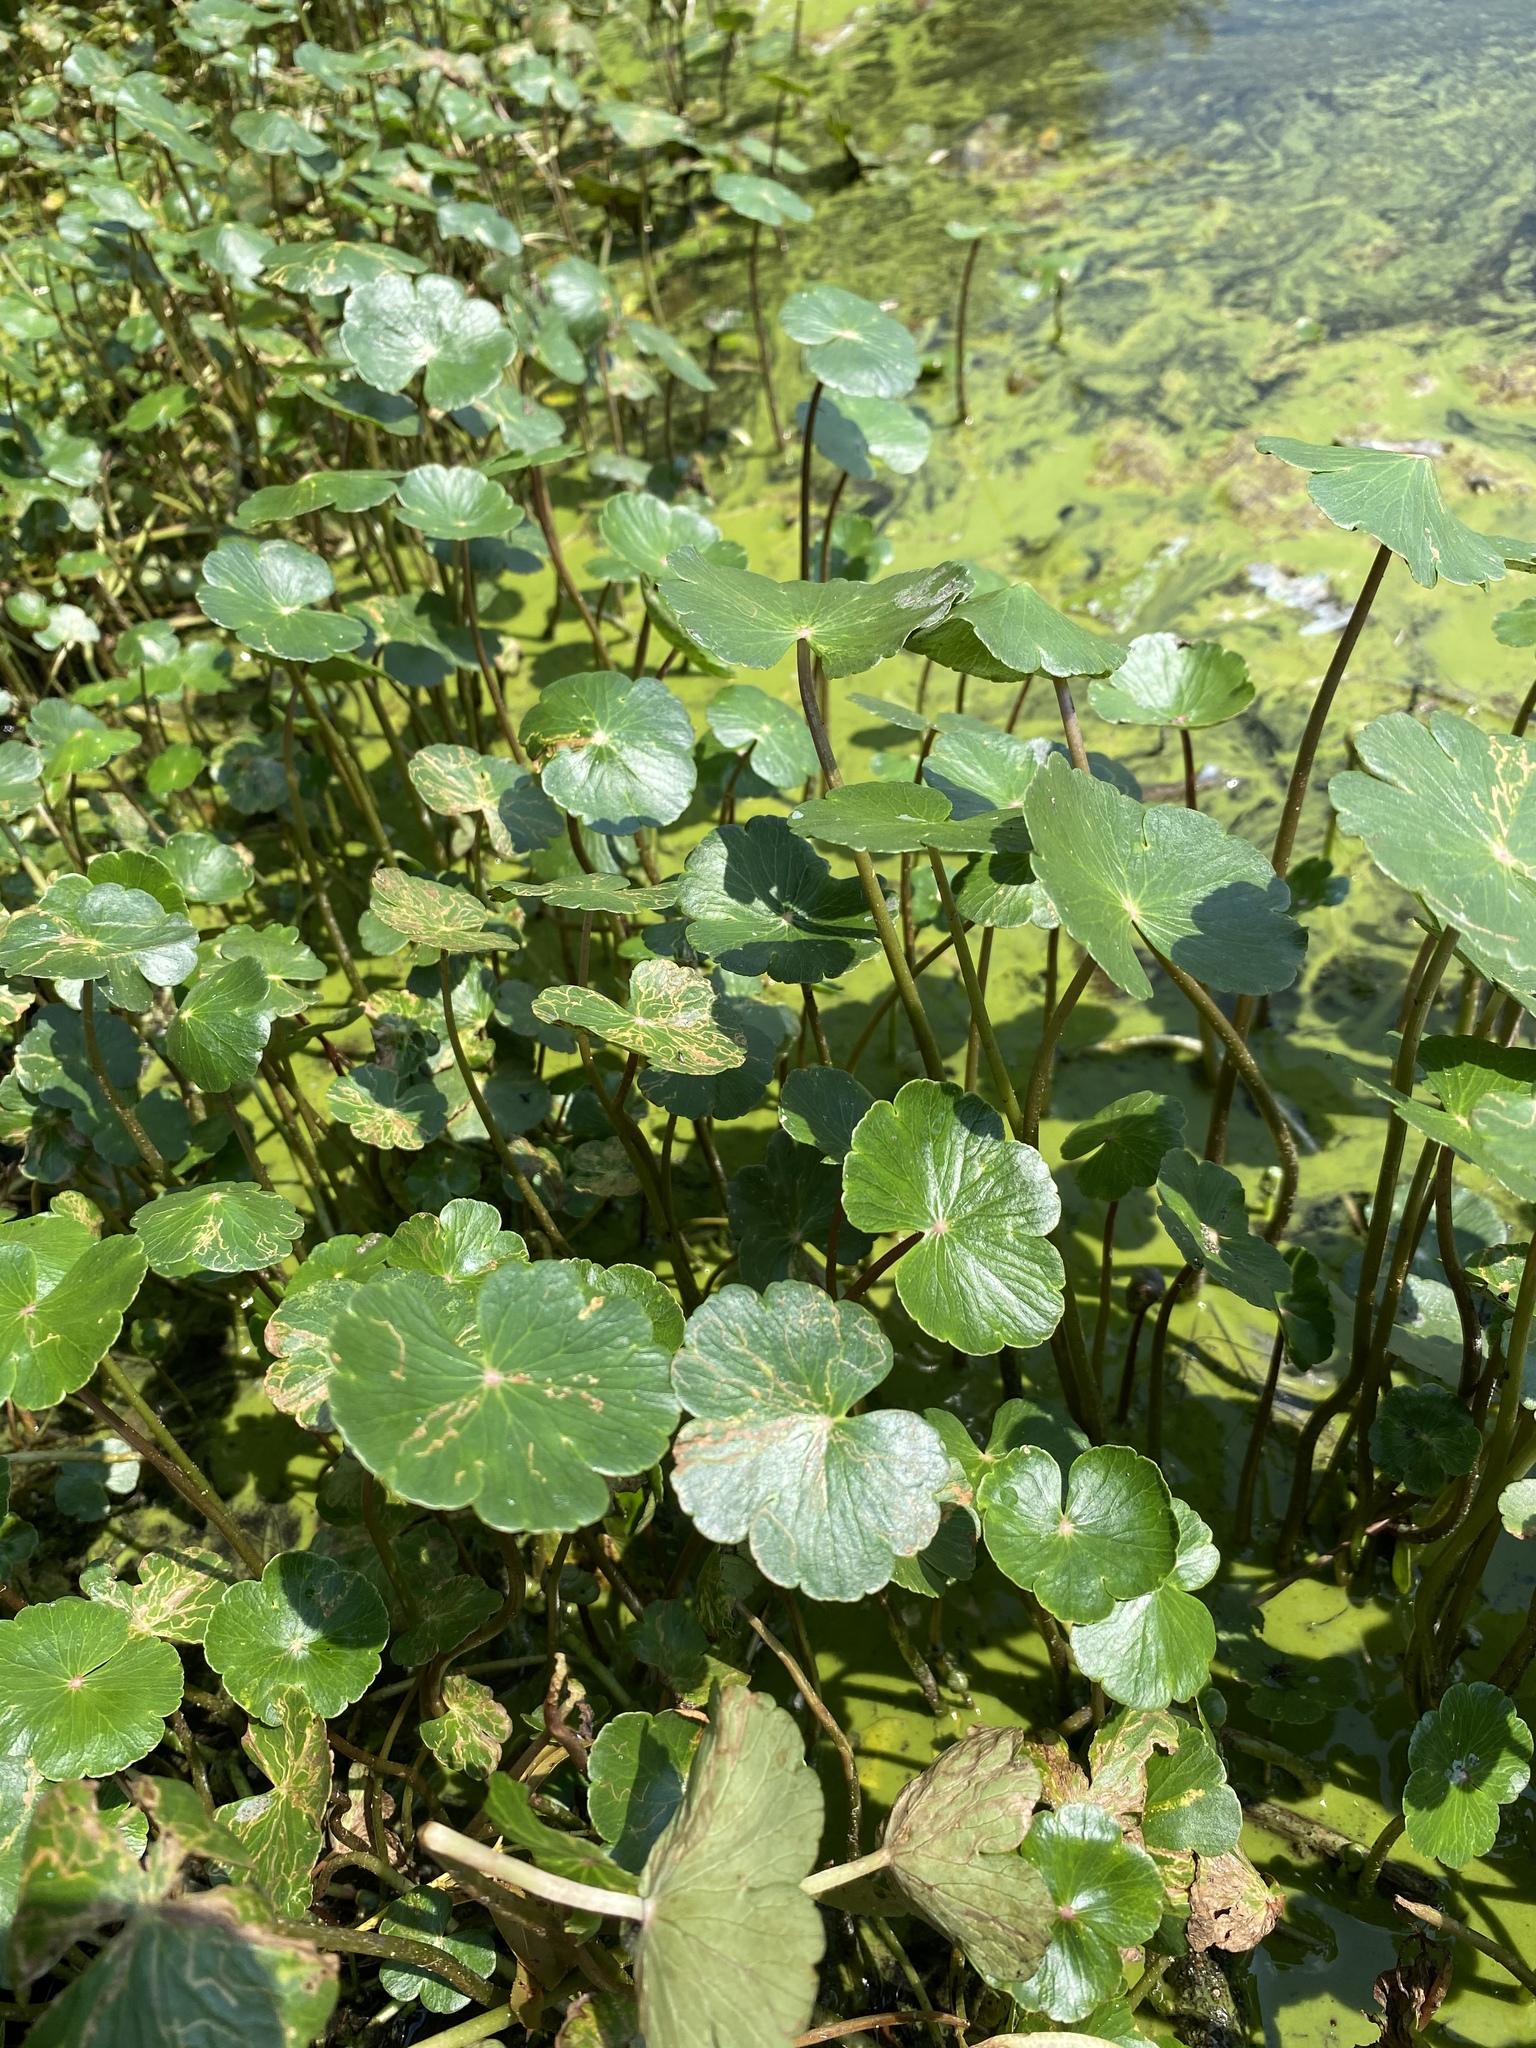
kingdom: Plantae
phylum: Tracheophyta
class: Magnoliopsida
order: Apiales
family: Araliaceae
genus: Hydrocotyle
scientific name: Hydrocotyle ranunculoides
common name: Floating pennywort
